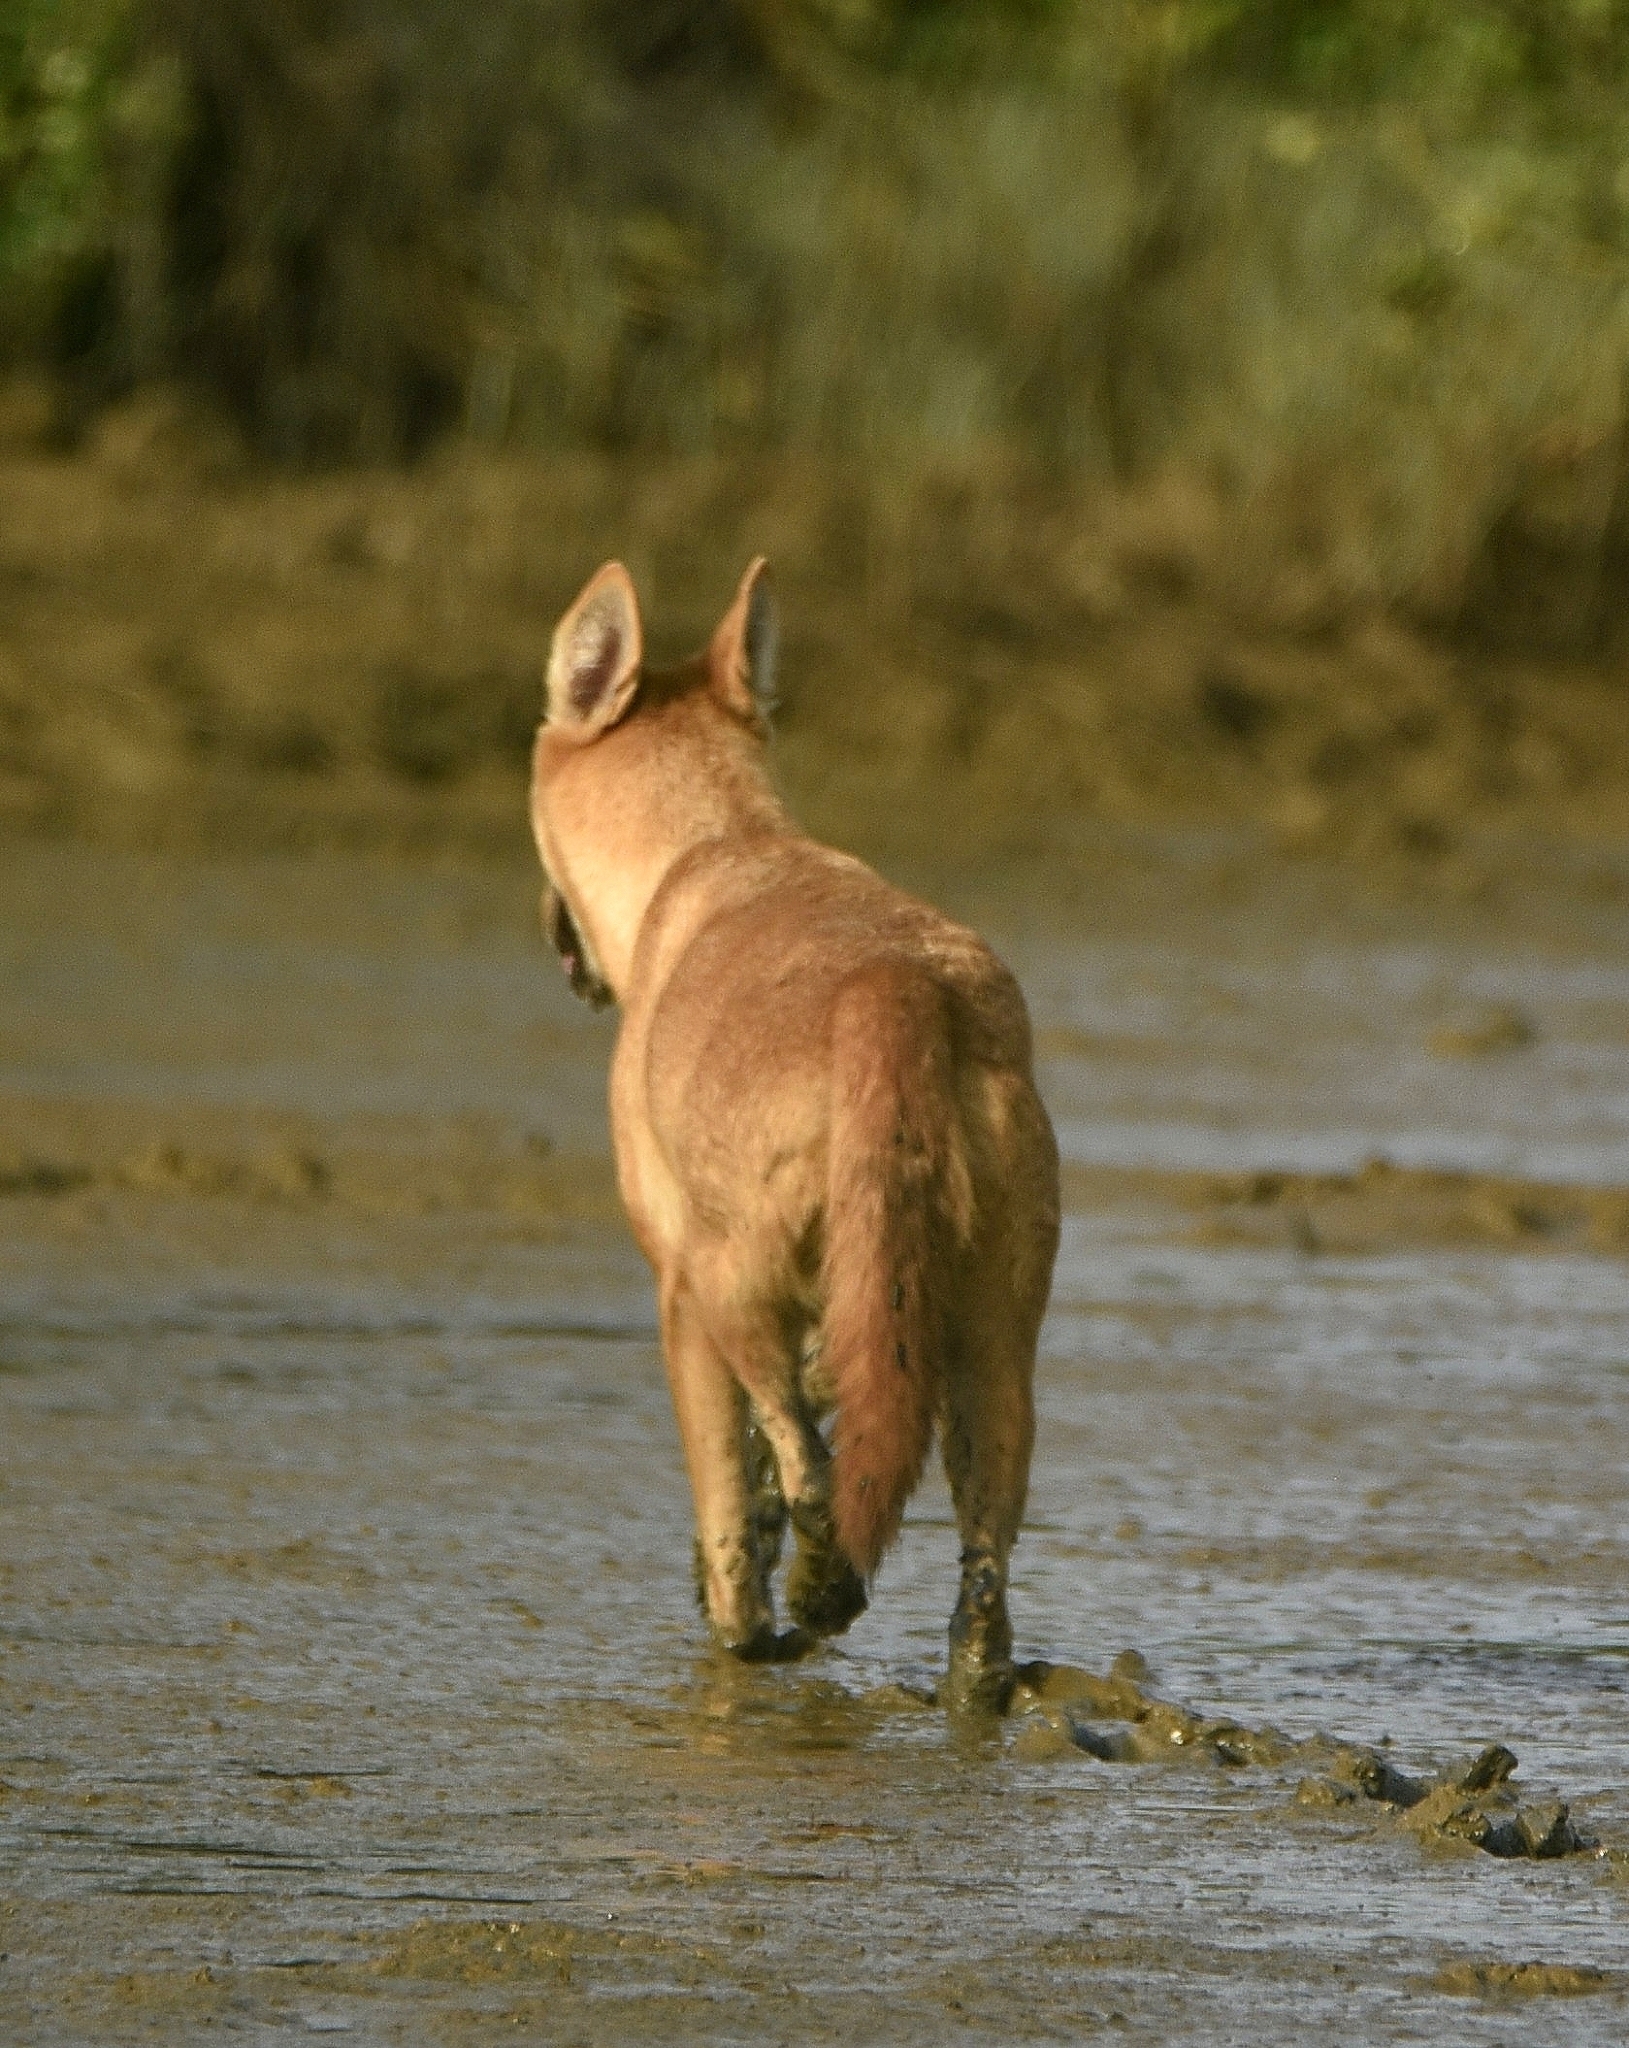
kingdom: Animalia
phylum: Chordata
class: Mammalia
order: Carnivora
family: Canidae
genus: Canis
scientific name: Canis lupus
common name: Gray wolf
